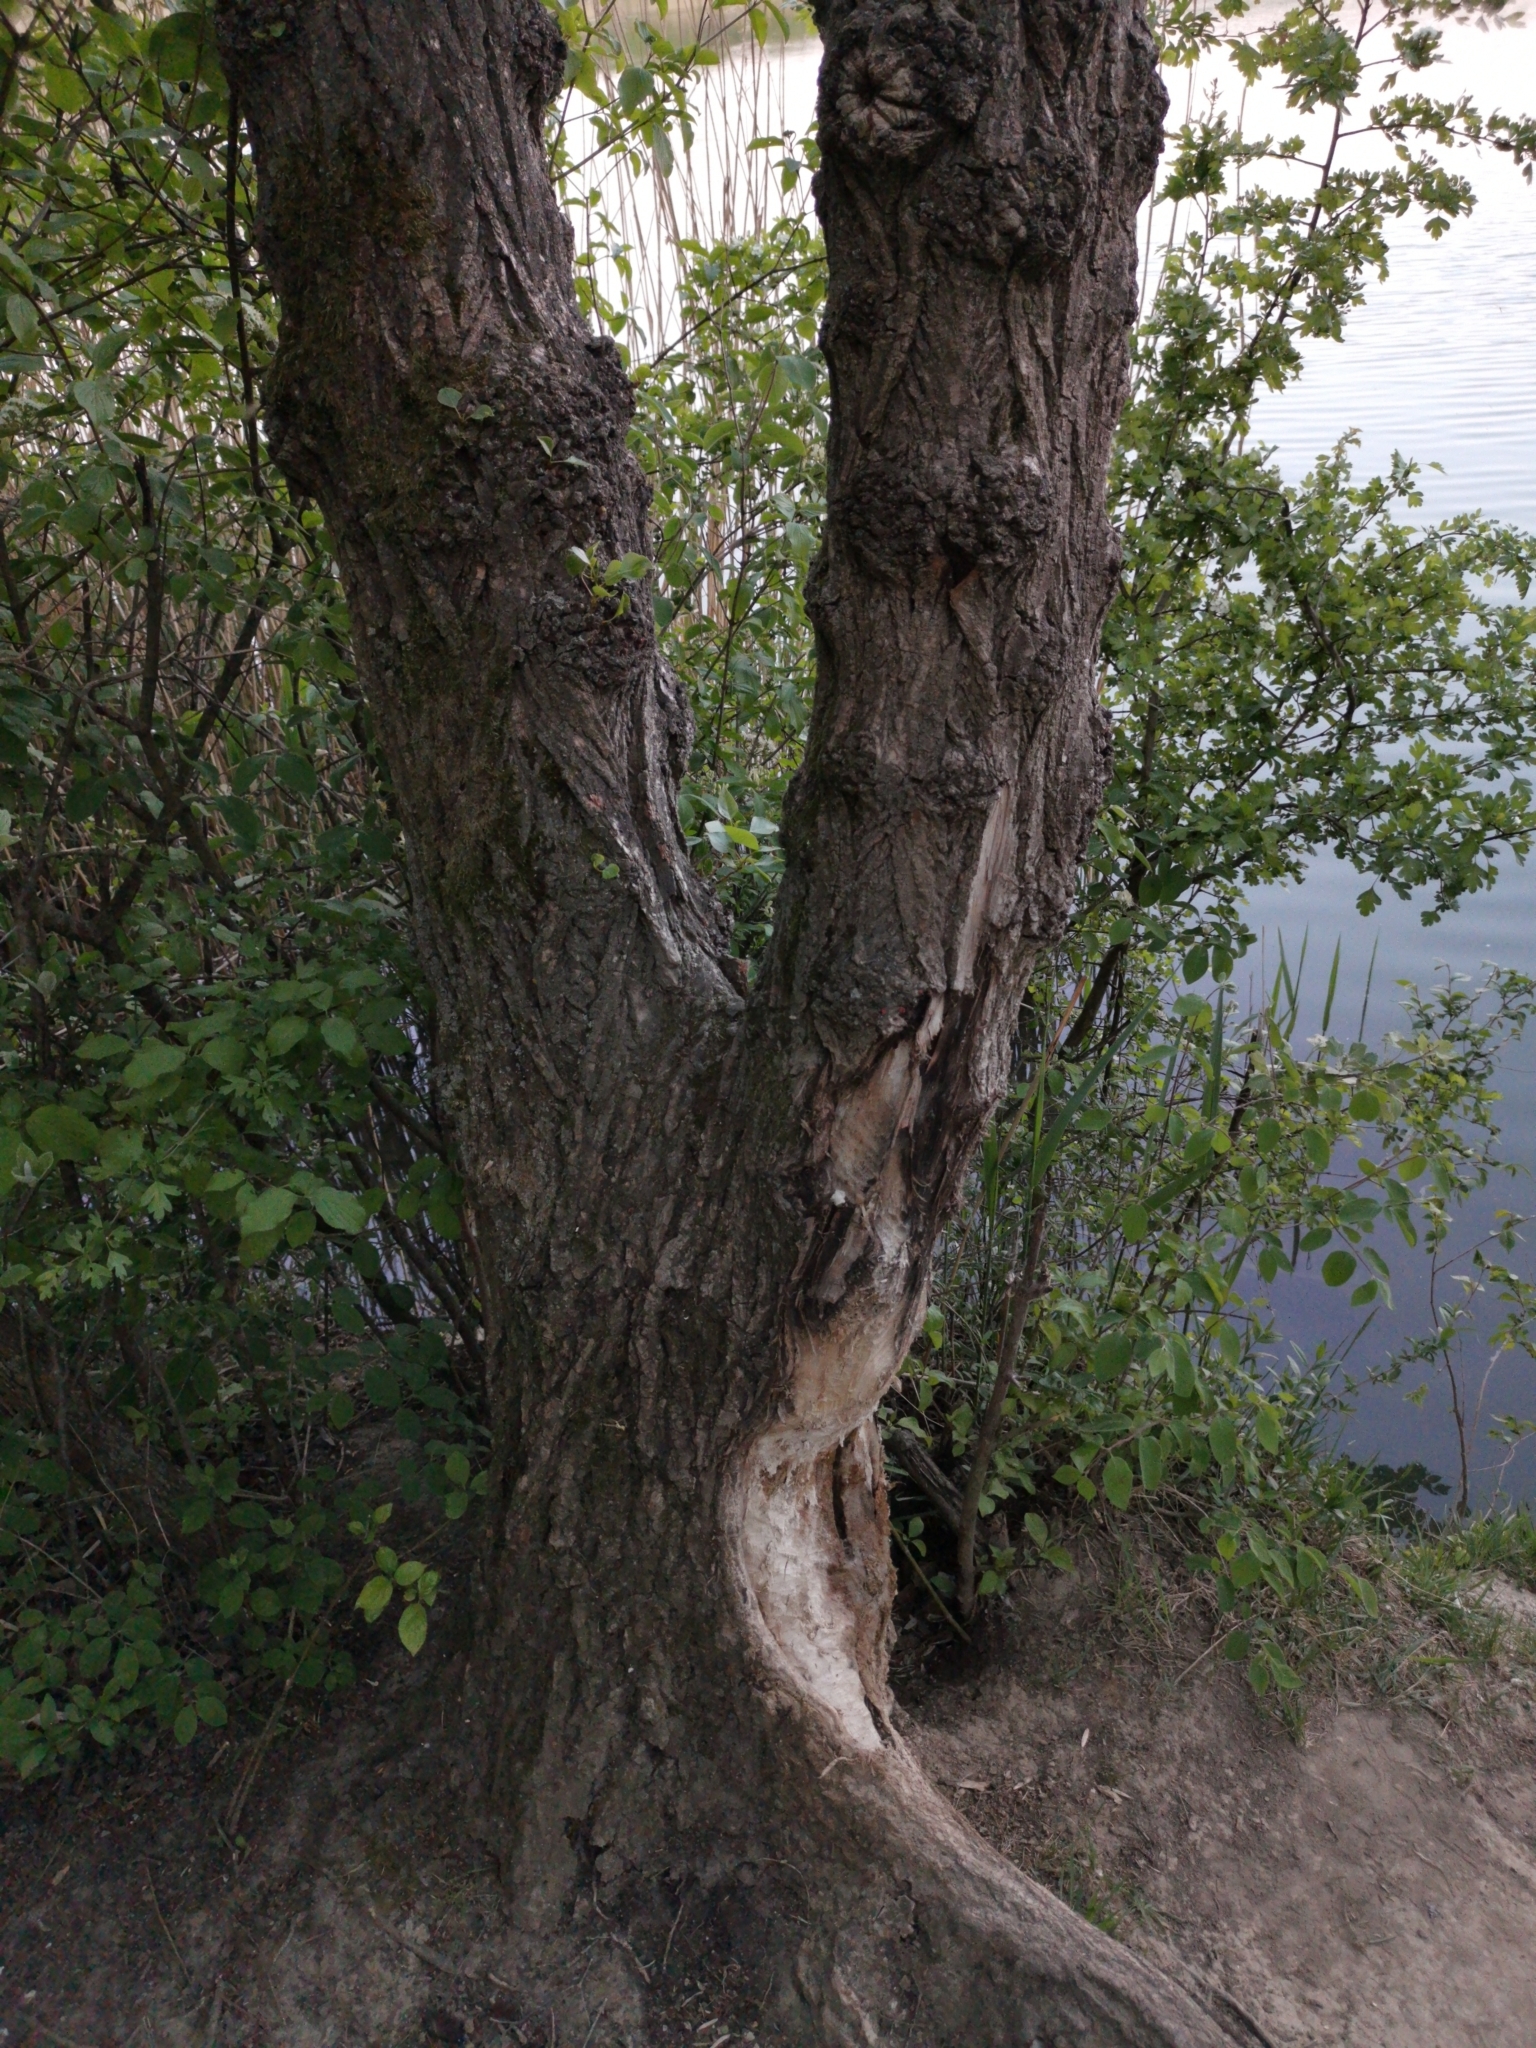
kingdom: Animalia
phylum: Chordata
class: Mammalia
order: Rodentia
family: Castoridae
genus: Castor
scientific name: Castor fiber
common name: Eurasian beaver
